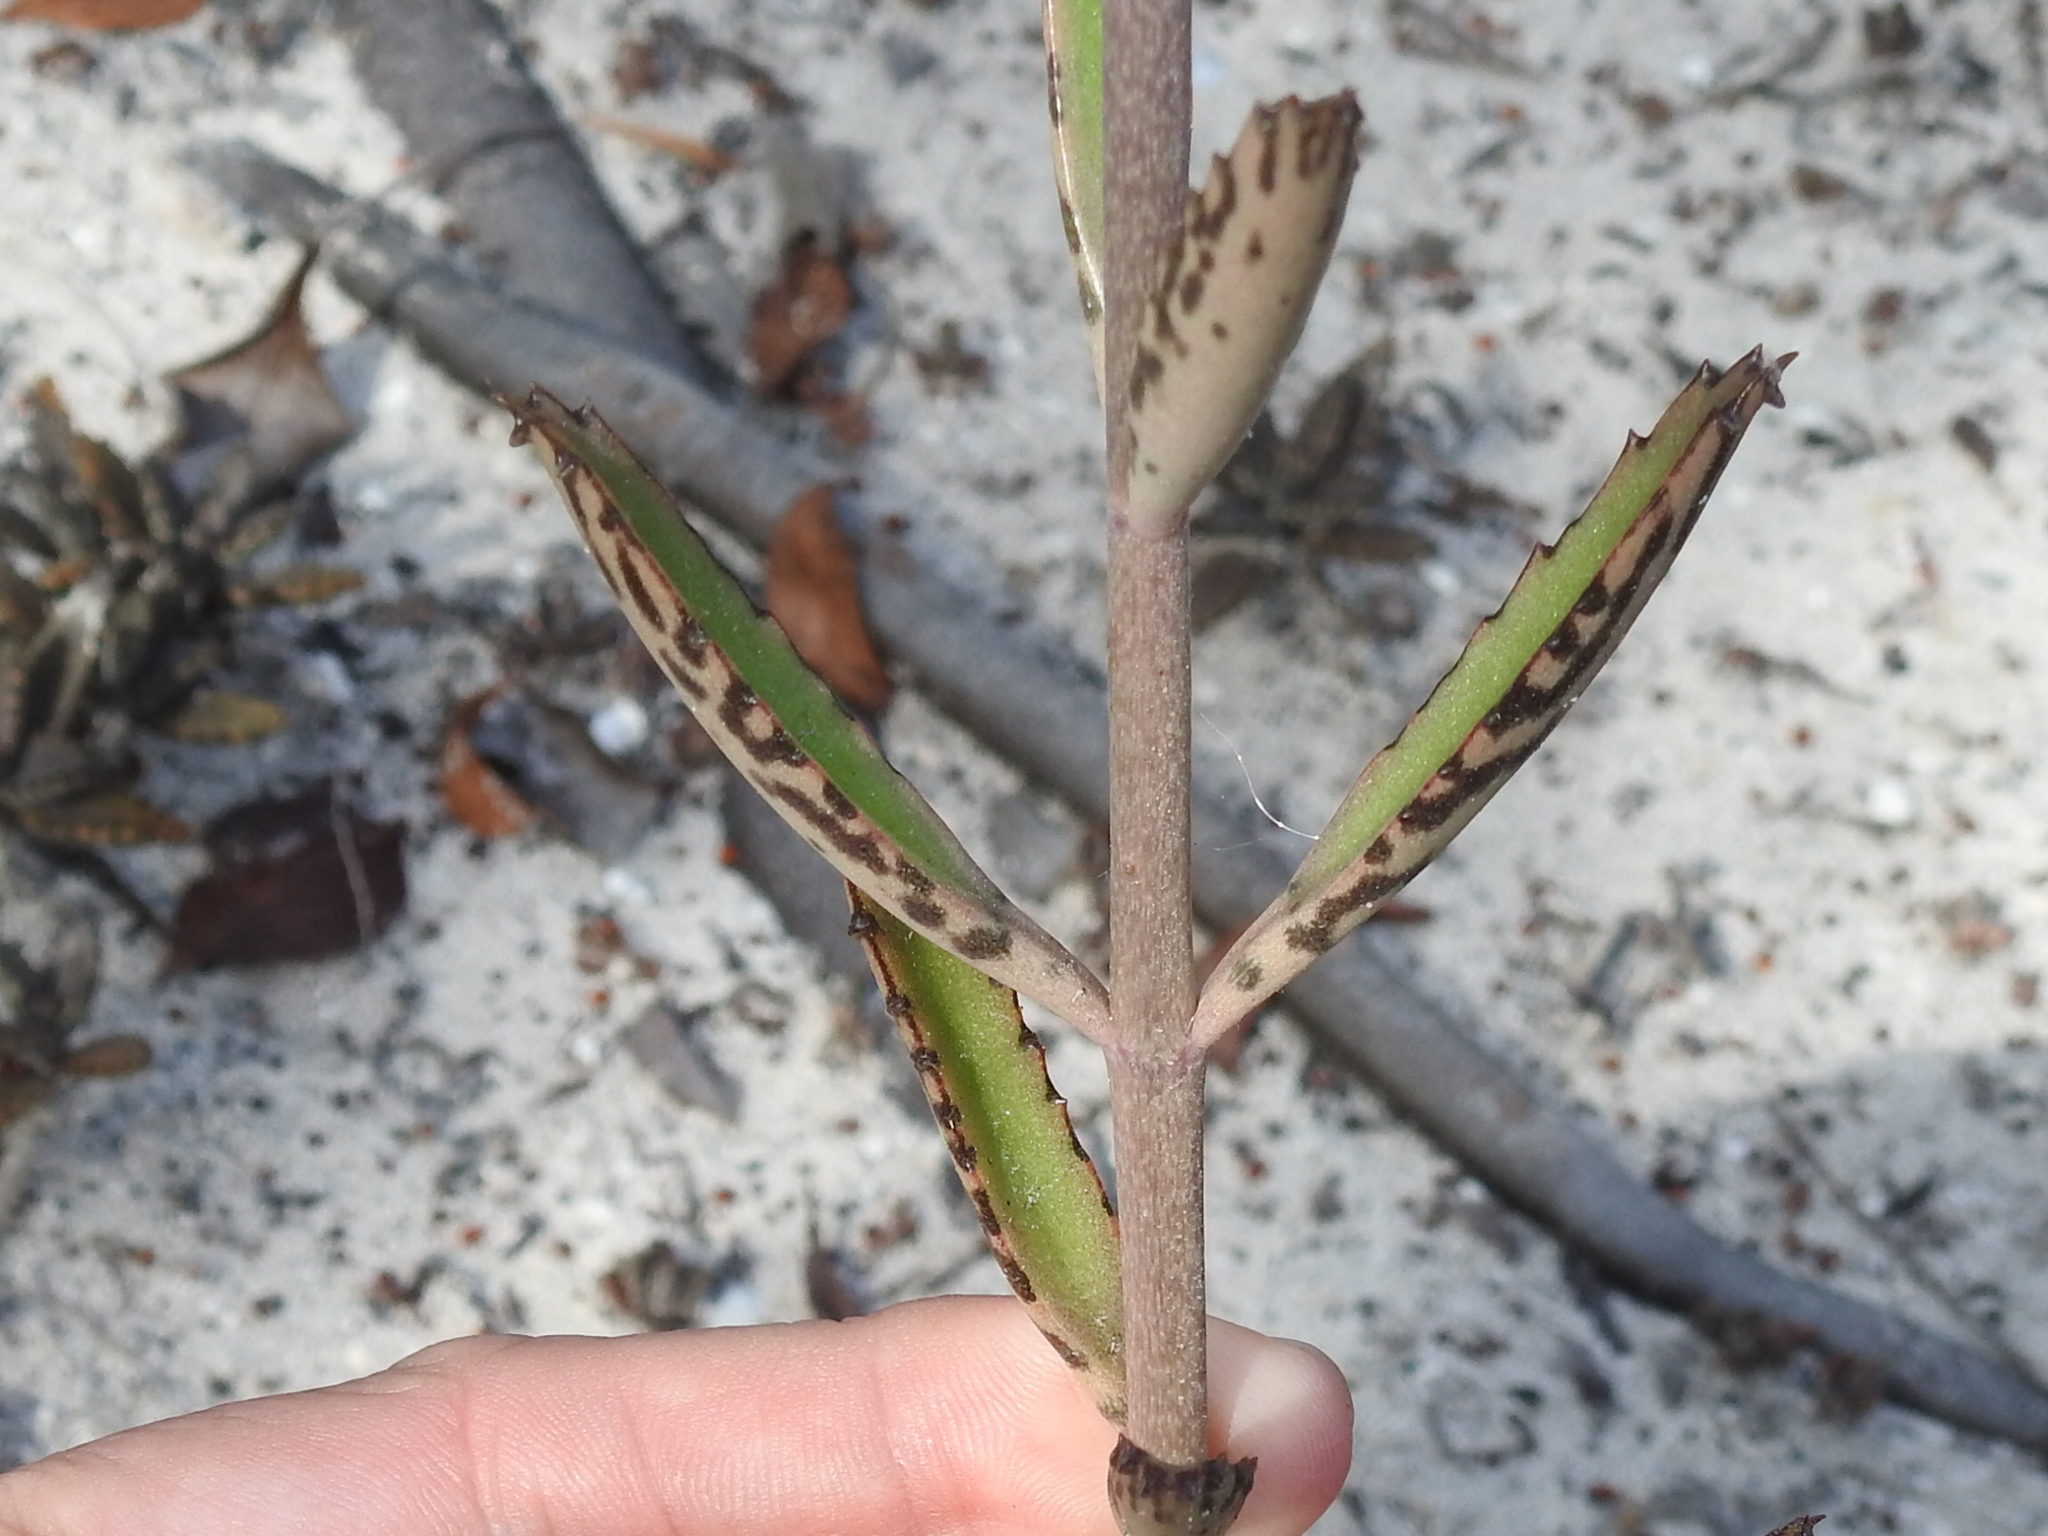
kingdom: Plantae
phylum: Tracheophyta
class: Magnoliopsida
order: Saxifragales
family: Crassulaceae
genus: Kalanchoe
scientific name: Kalanchoe houghtonii
